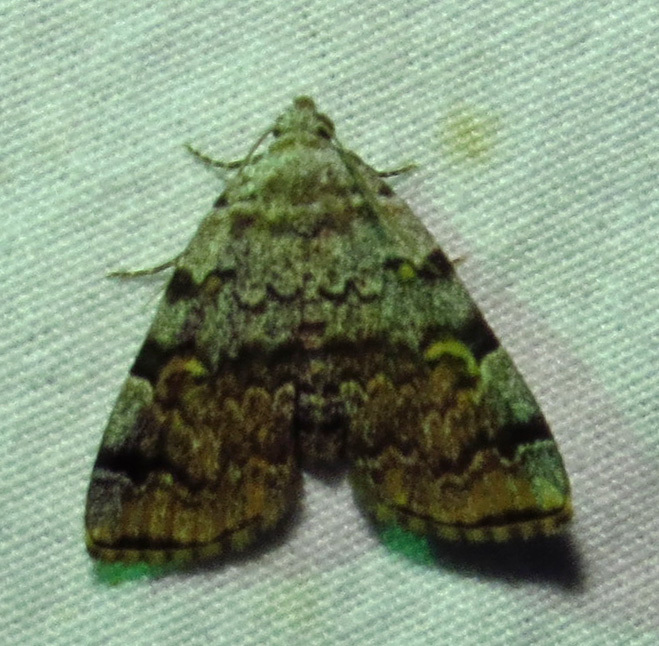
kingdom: Animalia
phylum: Arthropoda
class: Insecta
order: Lepidoptera
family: Erebidae
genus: Idia
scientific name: Idia americalis
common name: American idia moth
